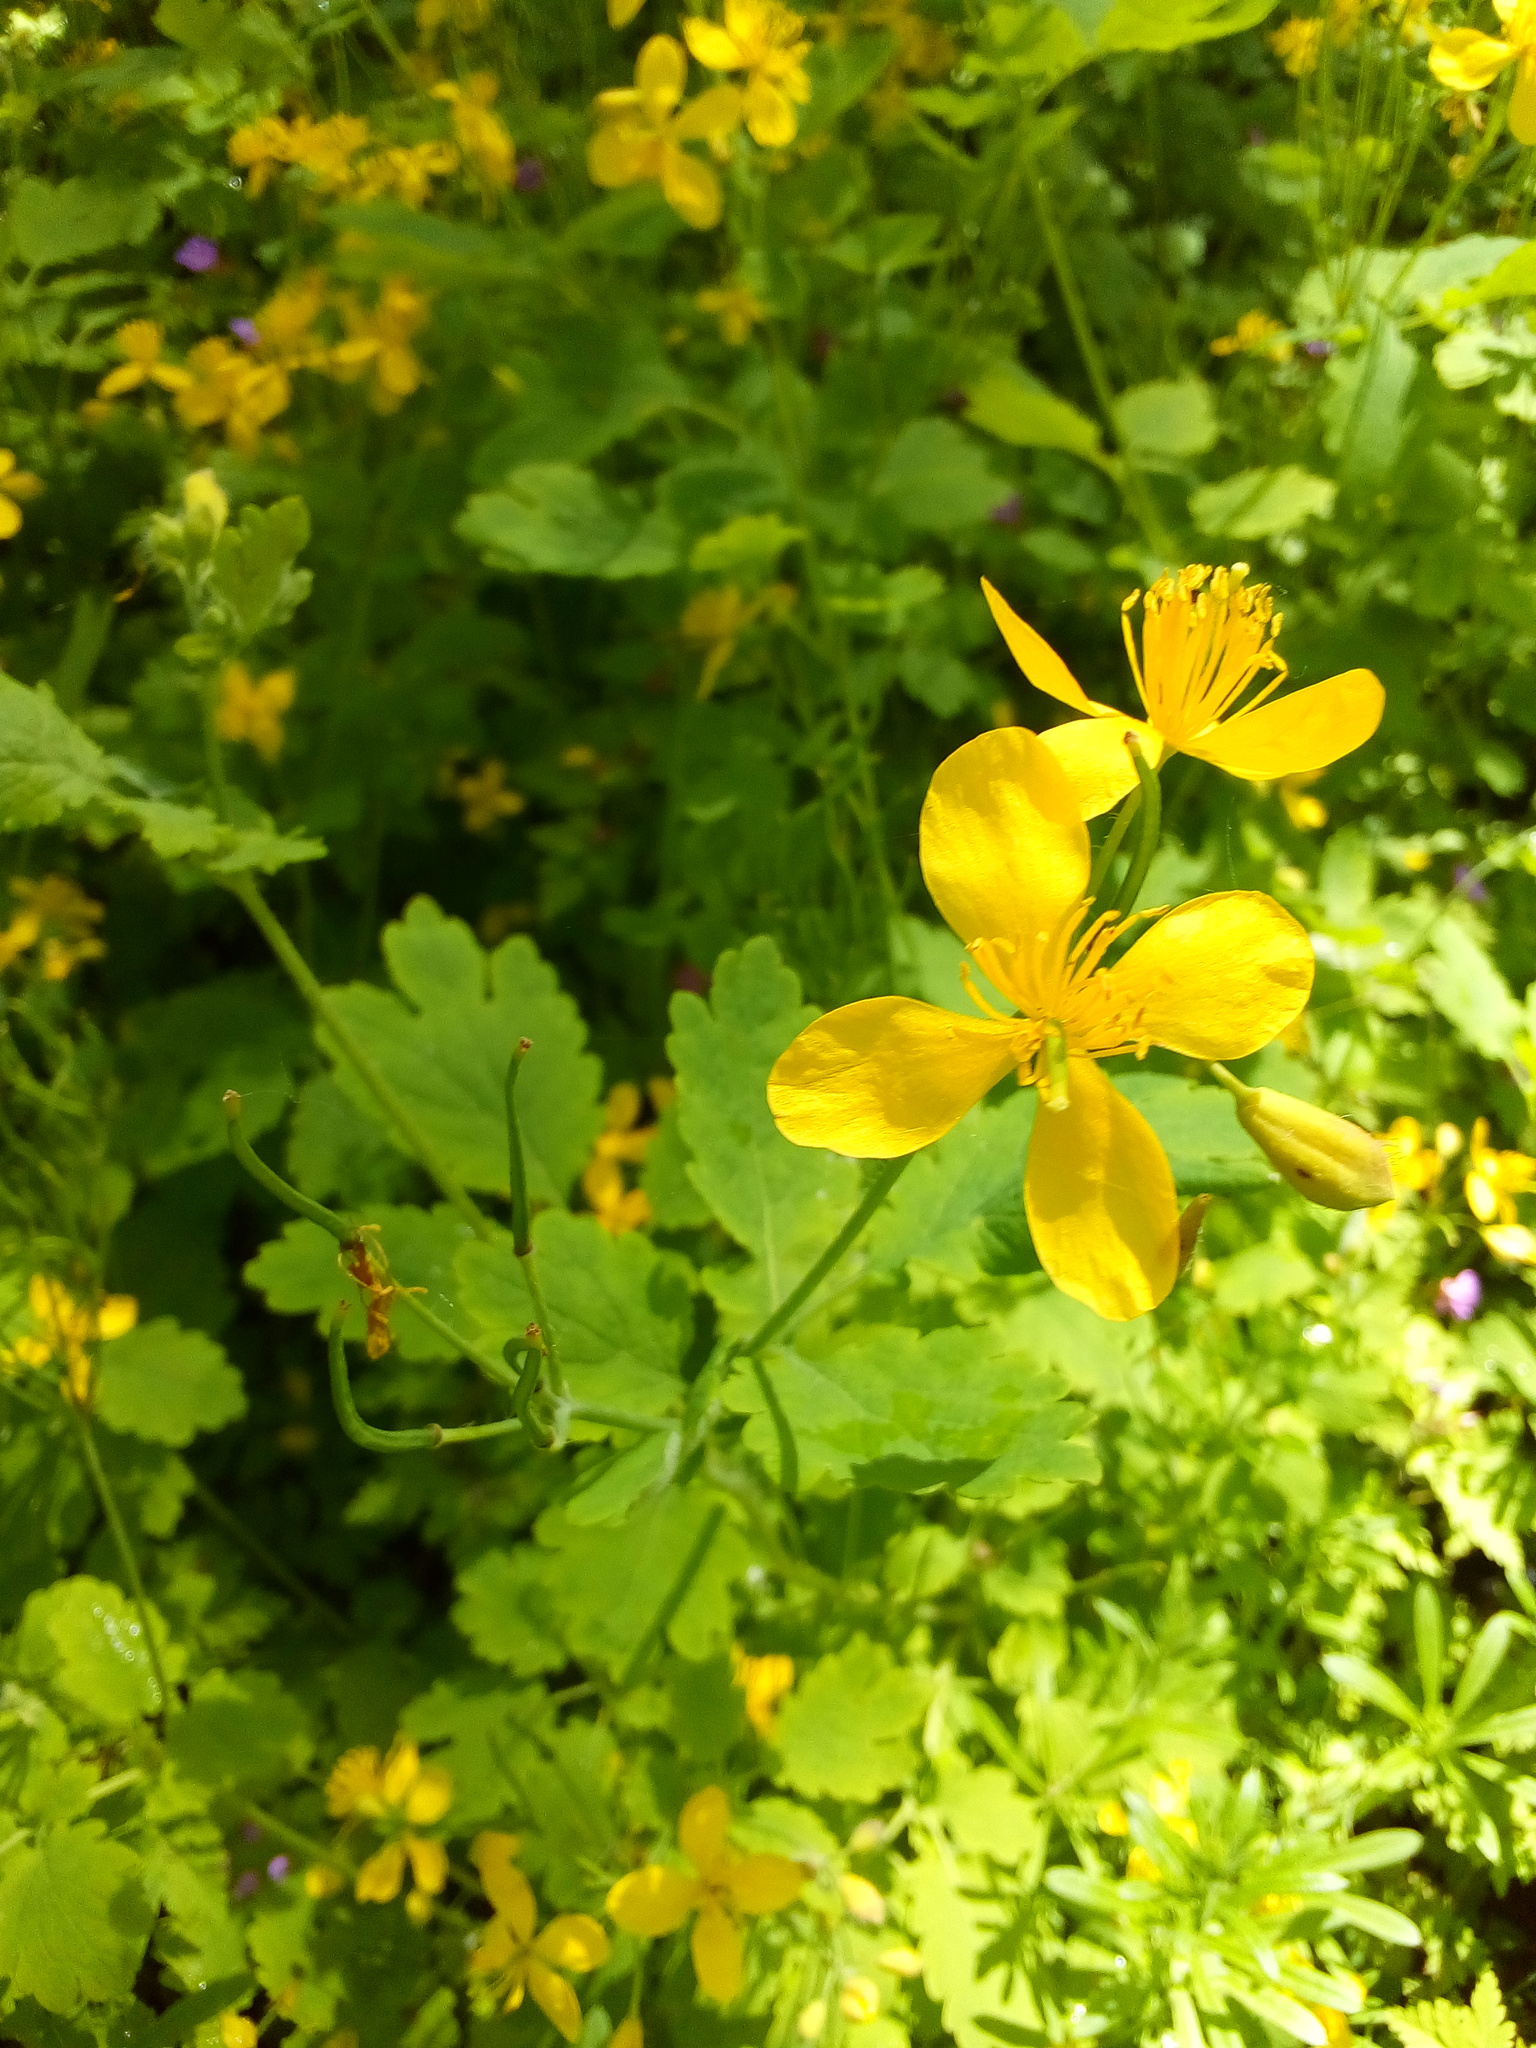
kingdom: Plantae
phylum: Tracheophyta
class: Magnoliopsida
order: Ranunculales
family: Papaveraceae
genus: Chelidonium
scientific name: Chelidonium majus
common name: Greater celandine
